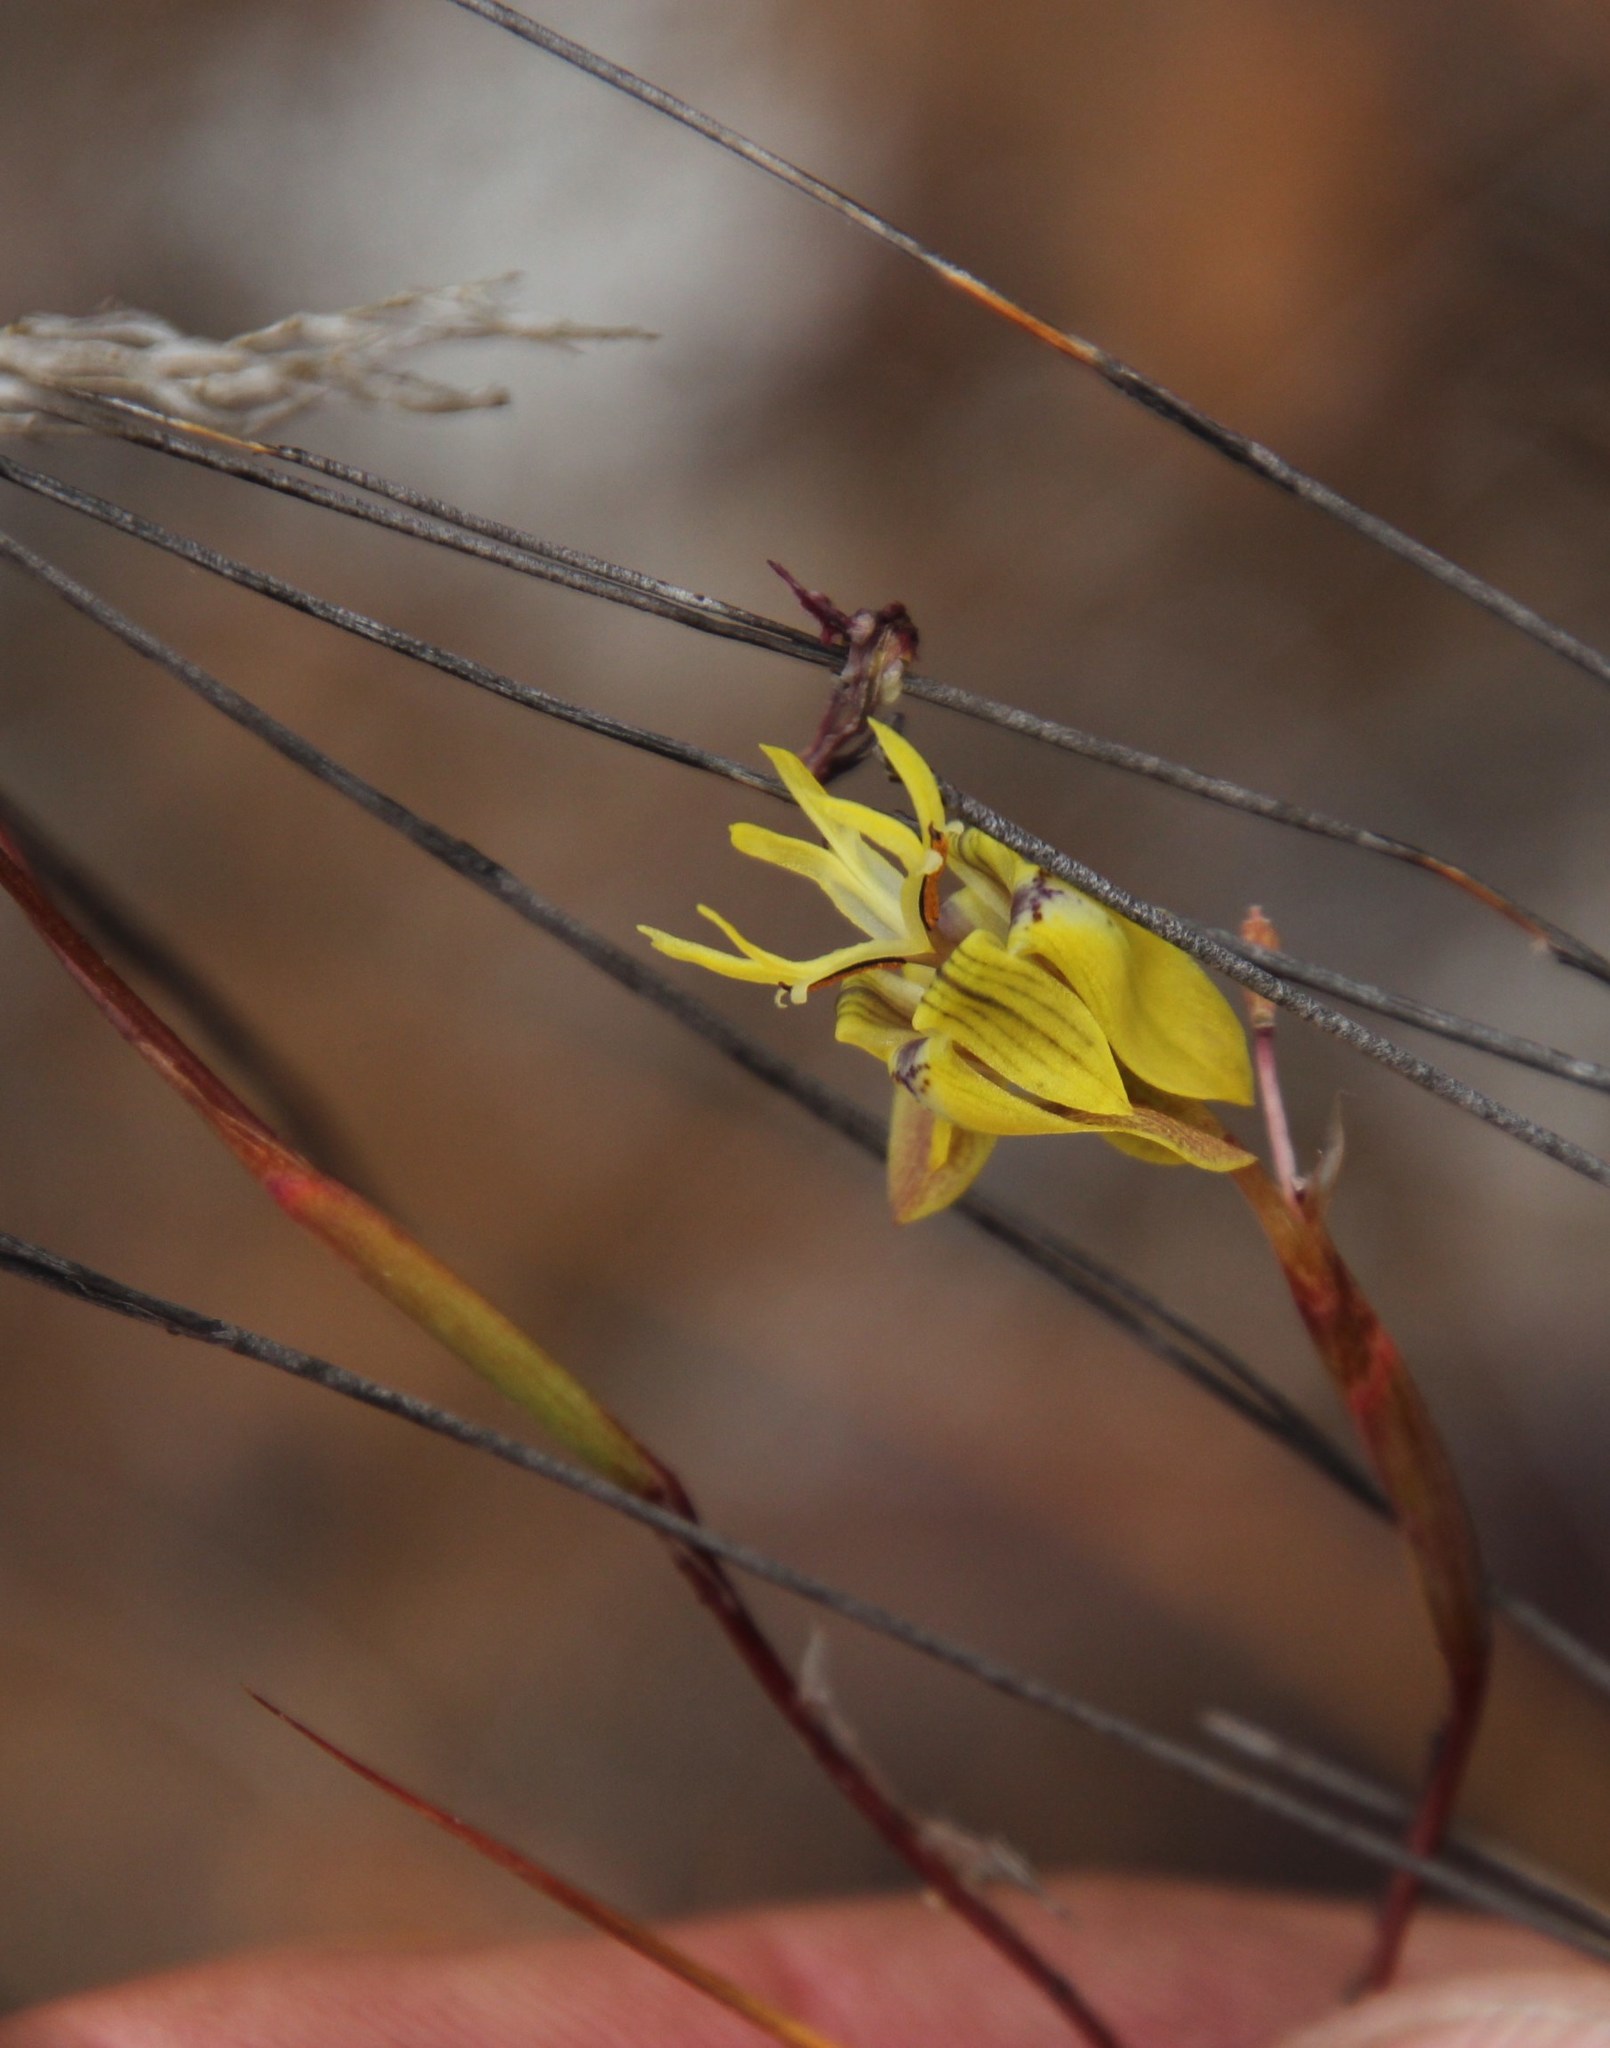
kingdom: Plantae
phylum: Tracheophyta
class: Liliopsida
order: Asparagales
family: Iridaceae
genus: Moraea
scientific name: Moraea inconspicua
